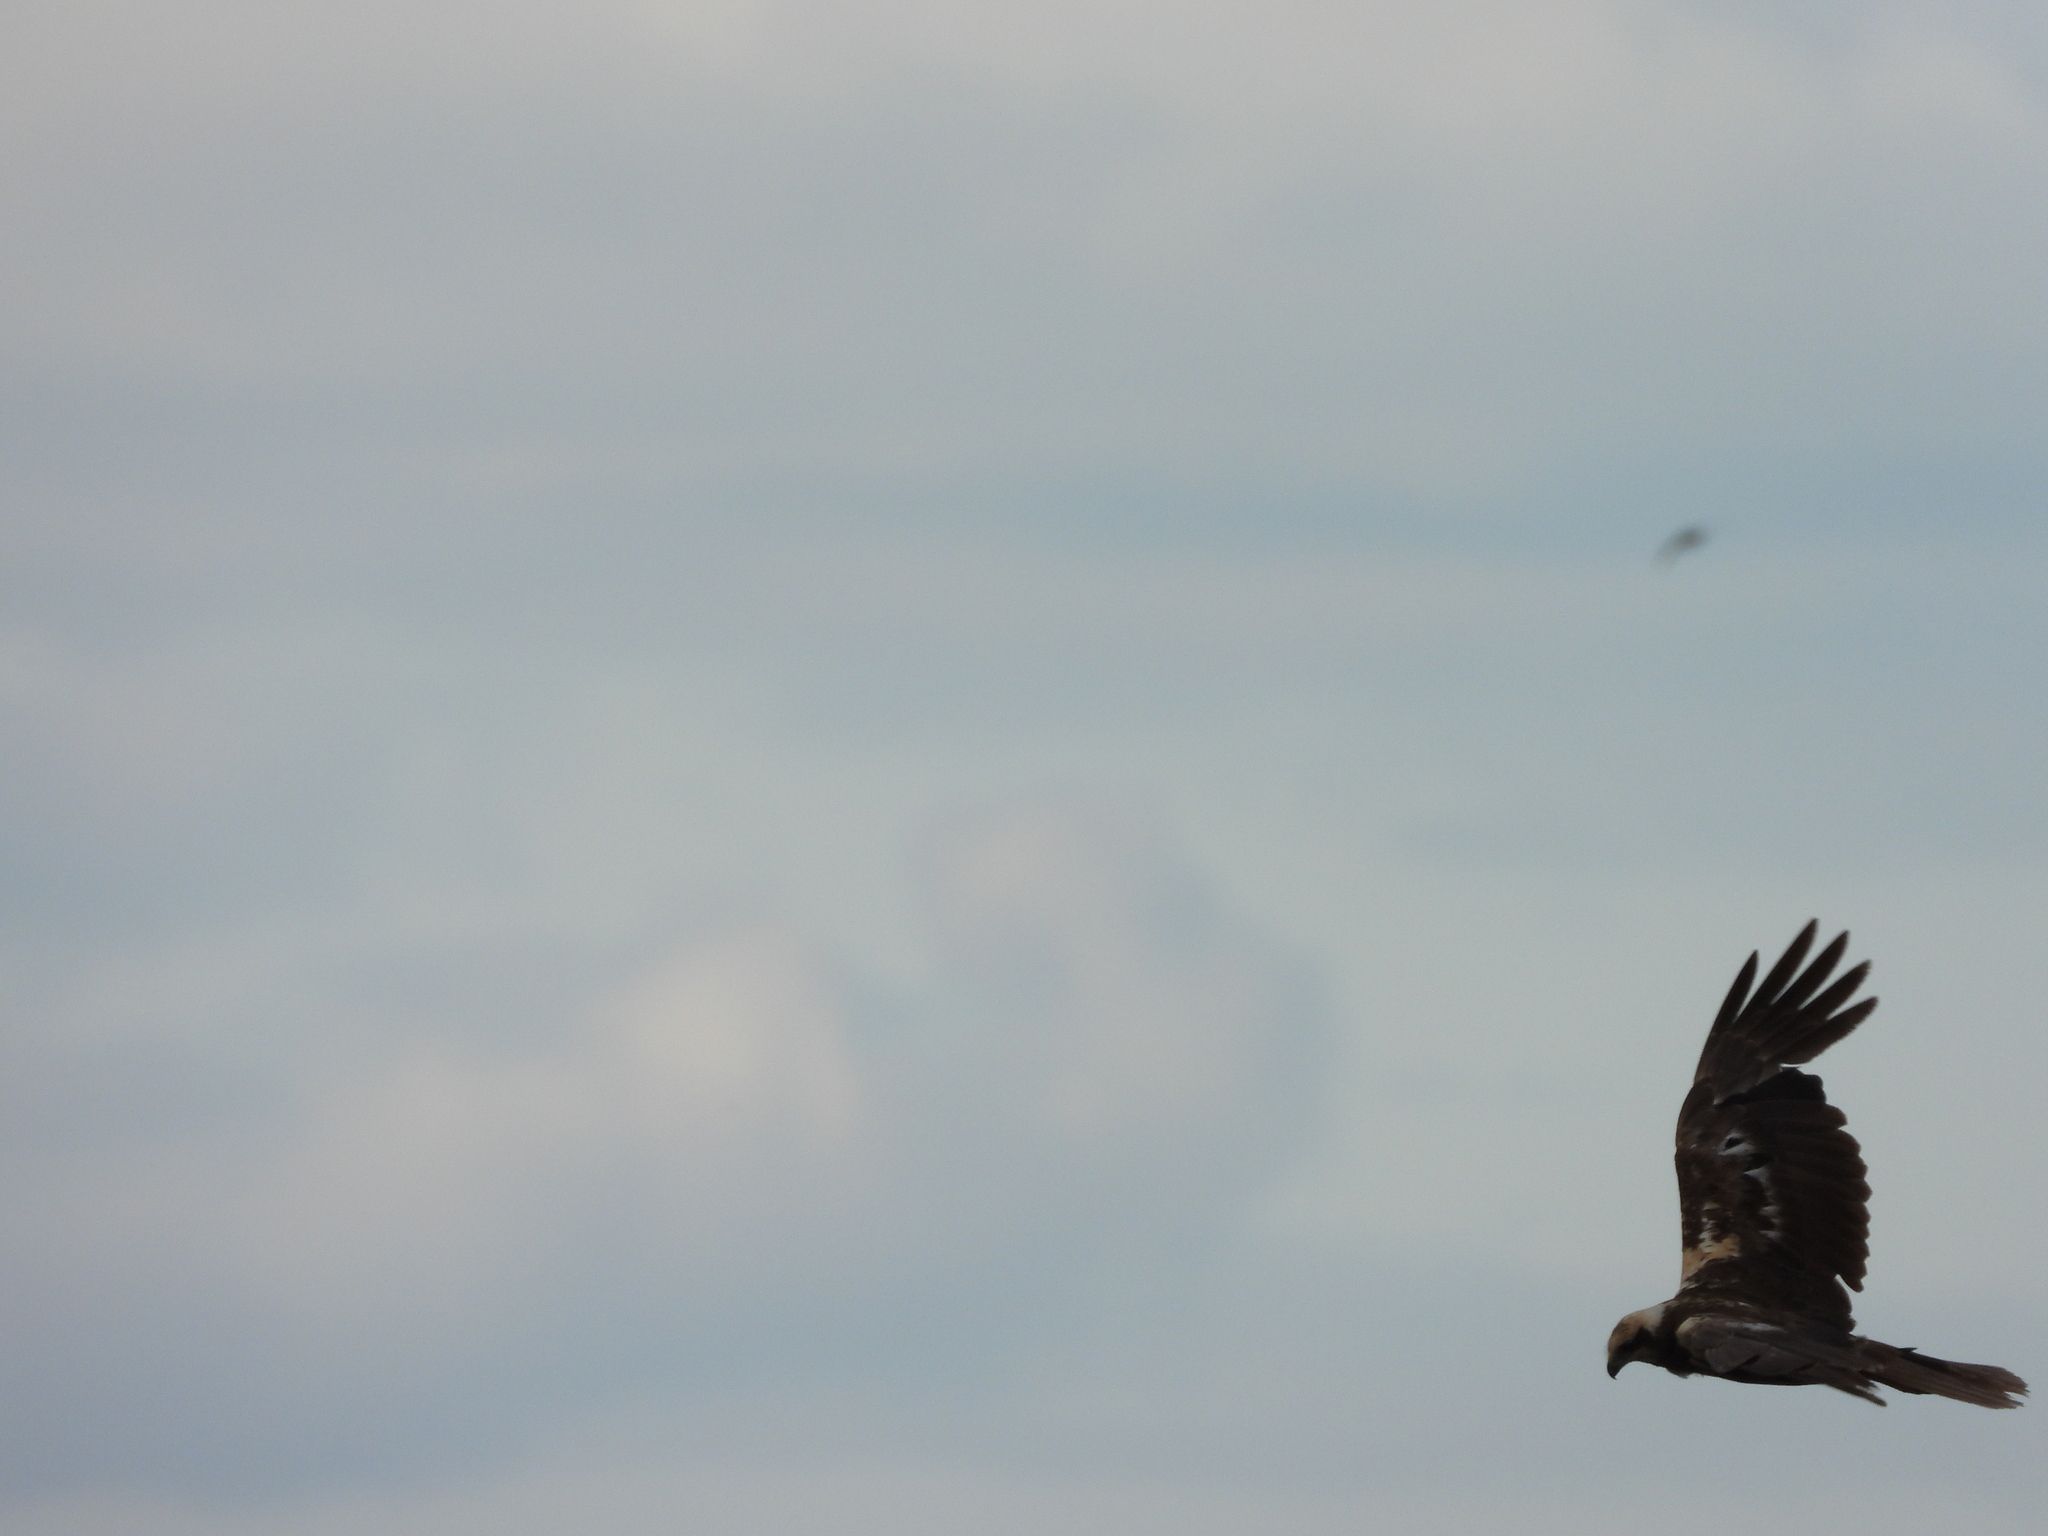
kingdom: Animalia
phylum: Chordata
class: Aves
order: Accipitriformes
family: Accipitridae
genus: Circus
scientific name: Circus aeruginosus
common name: Western marsh harrier
